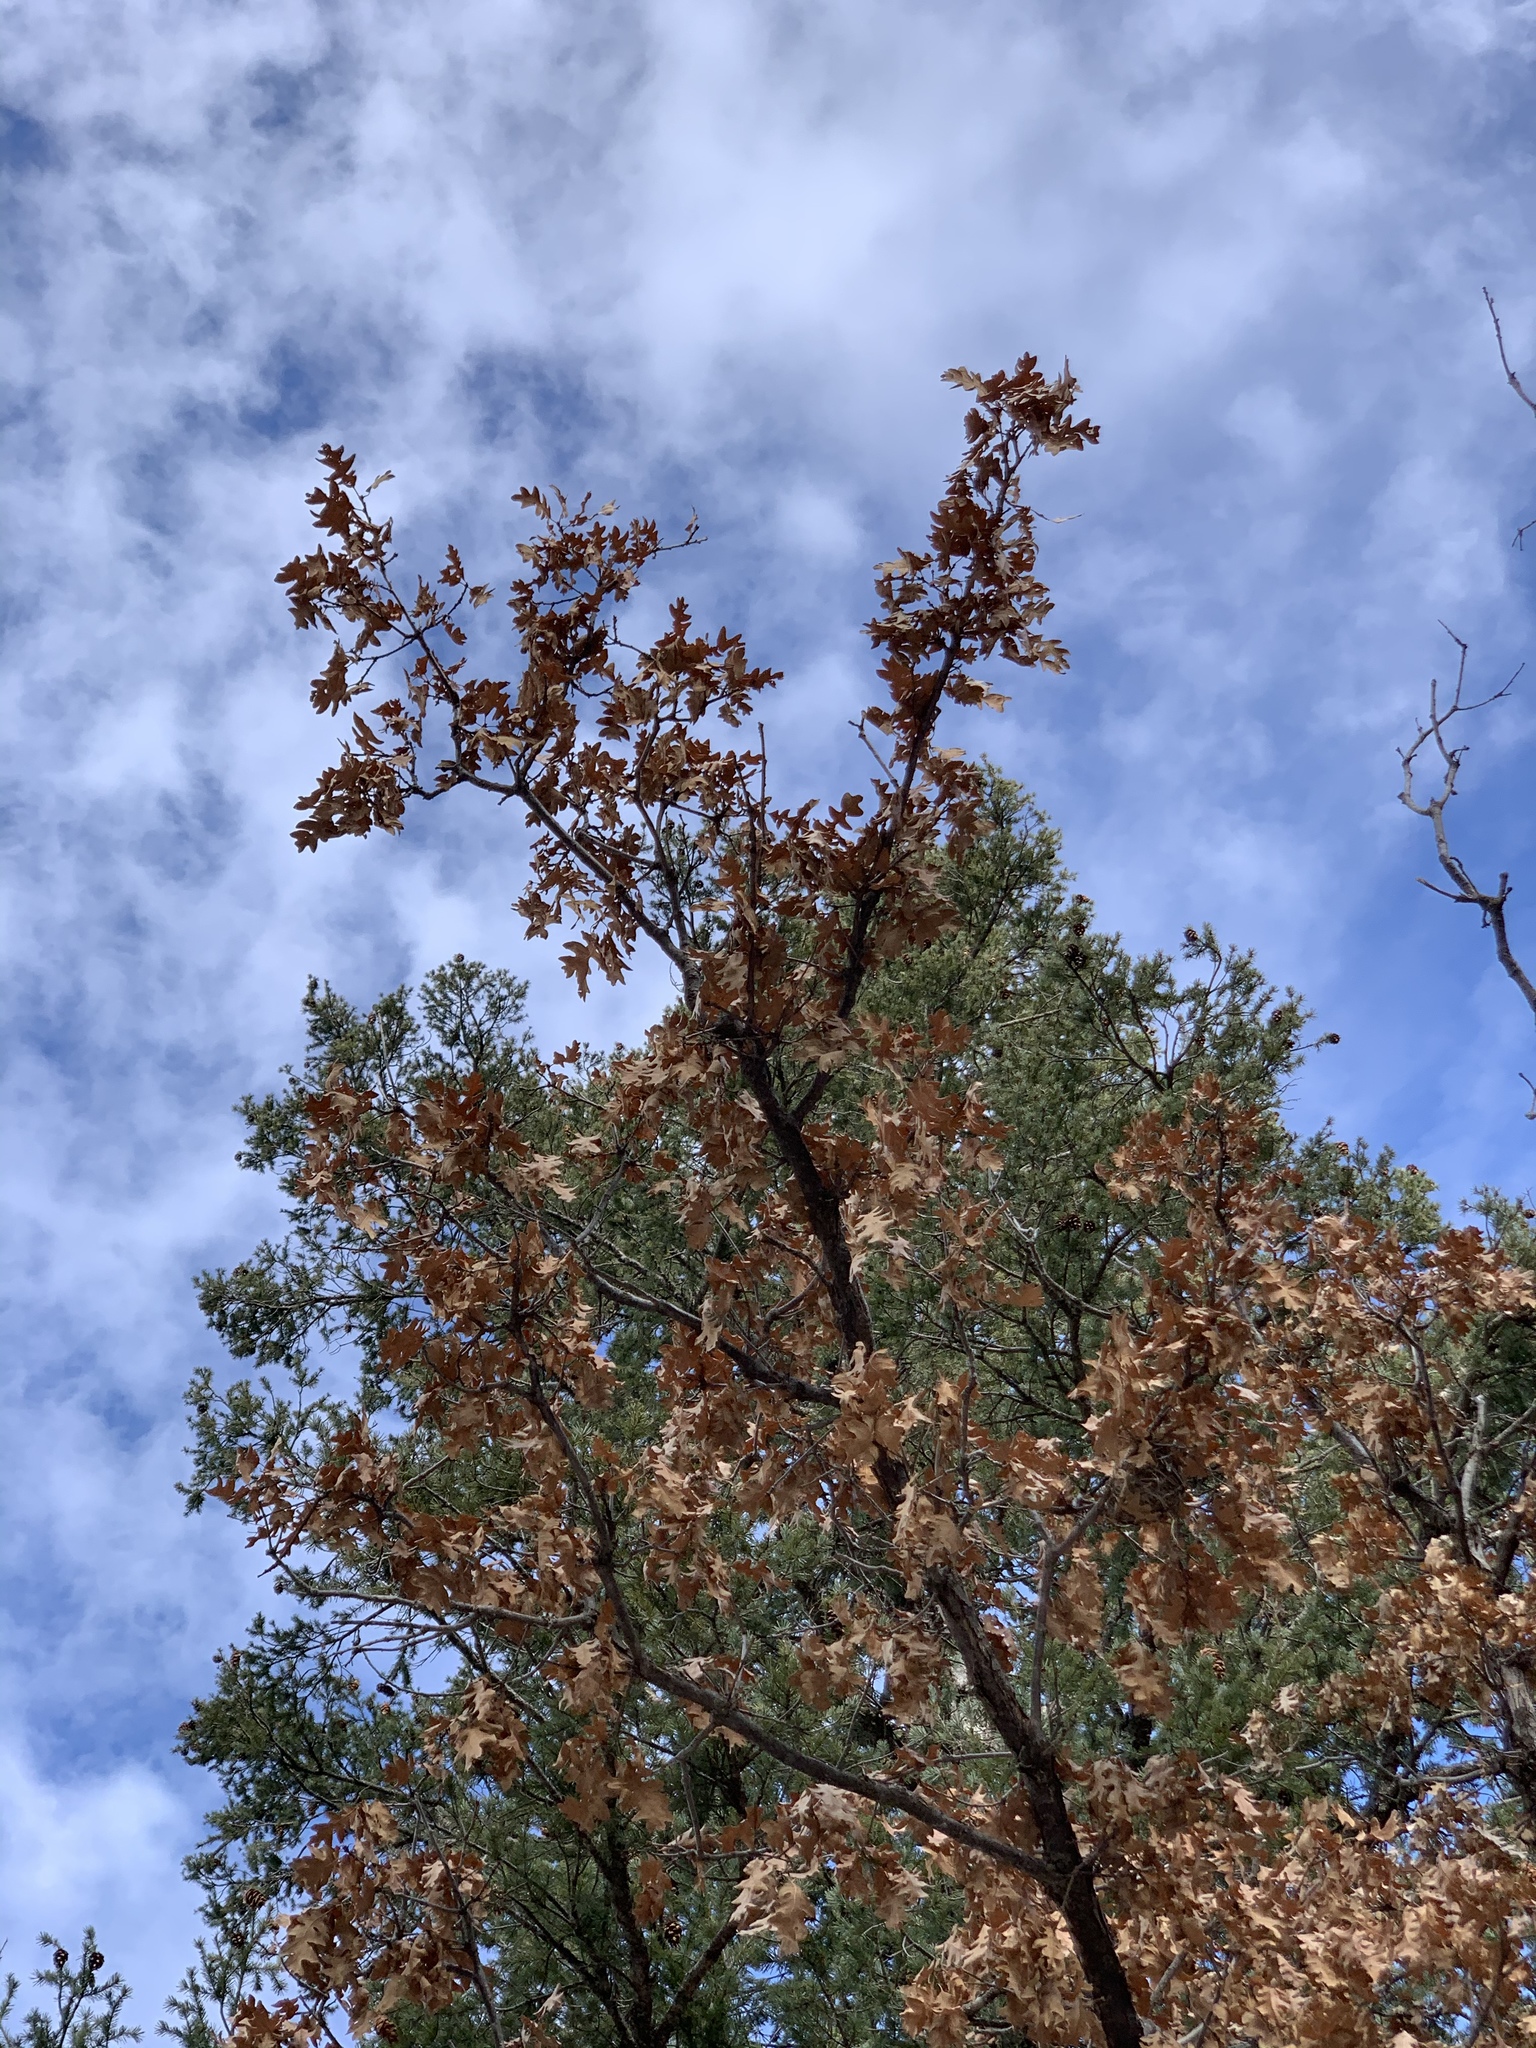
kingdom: Plantae
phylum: Tracheophyta
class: Magnoliopsida
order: Fagales
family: Fagaceae
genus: Quercus
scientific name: Quercus gambelii
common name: Gambel oak
